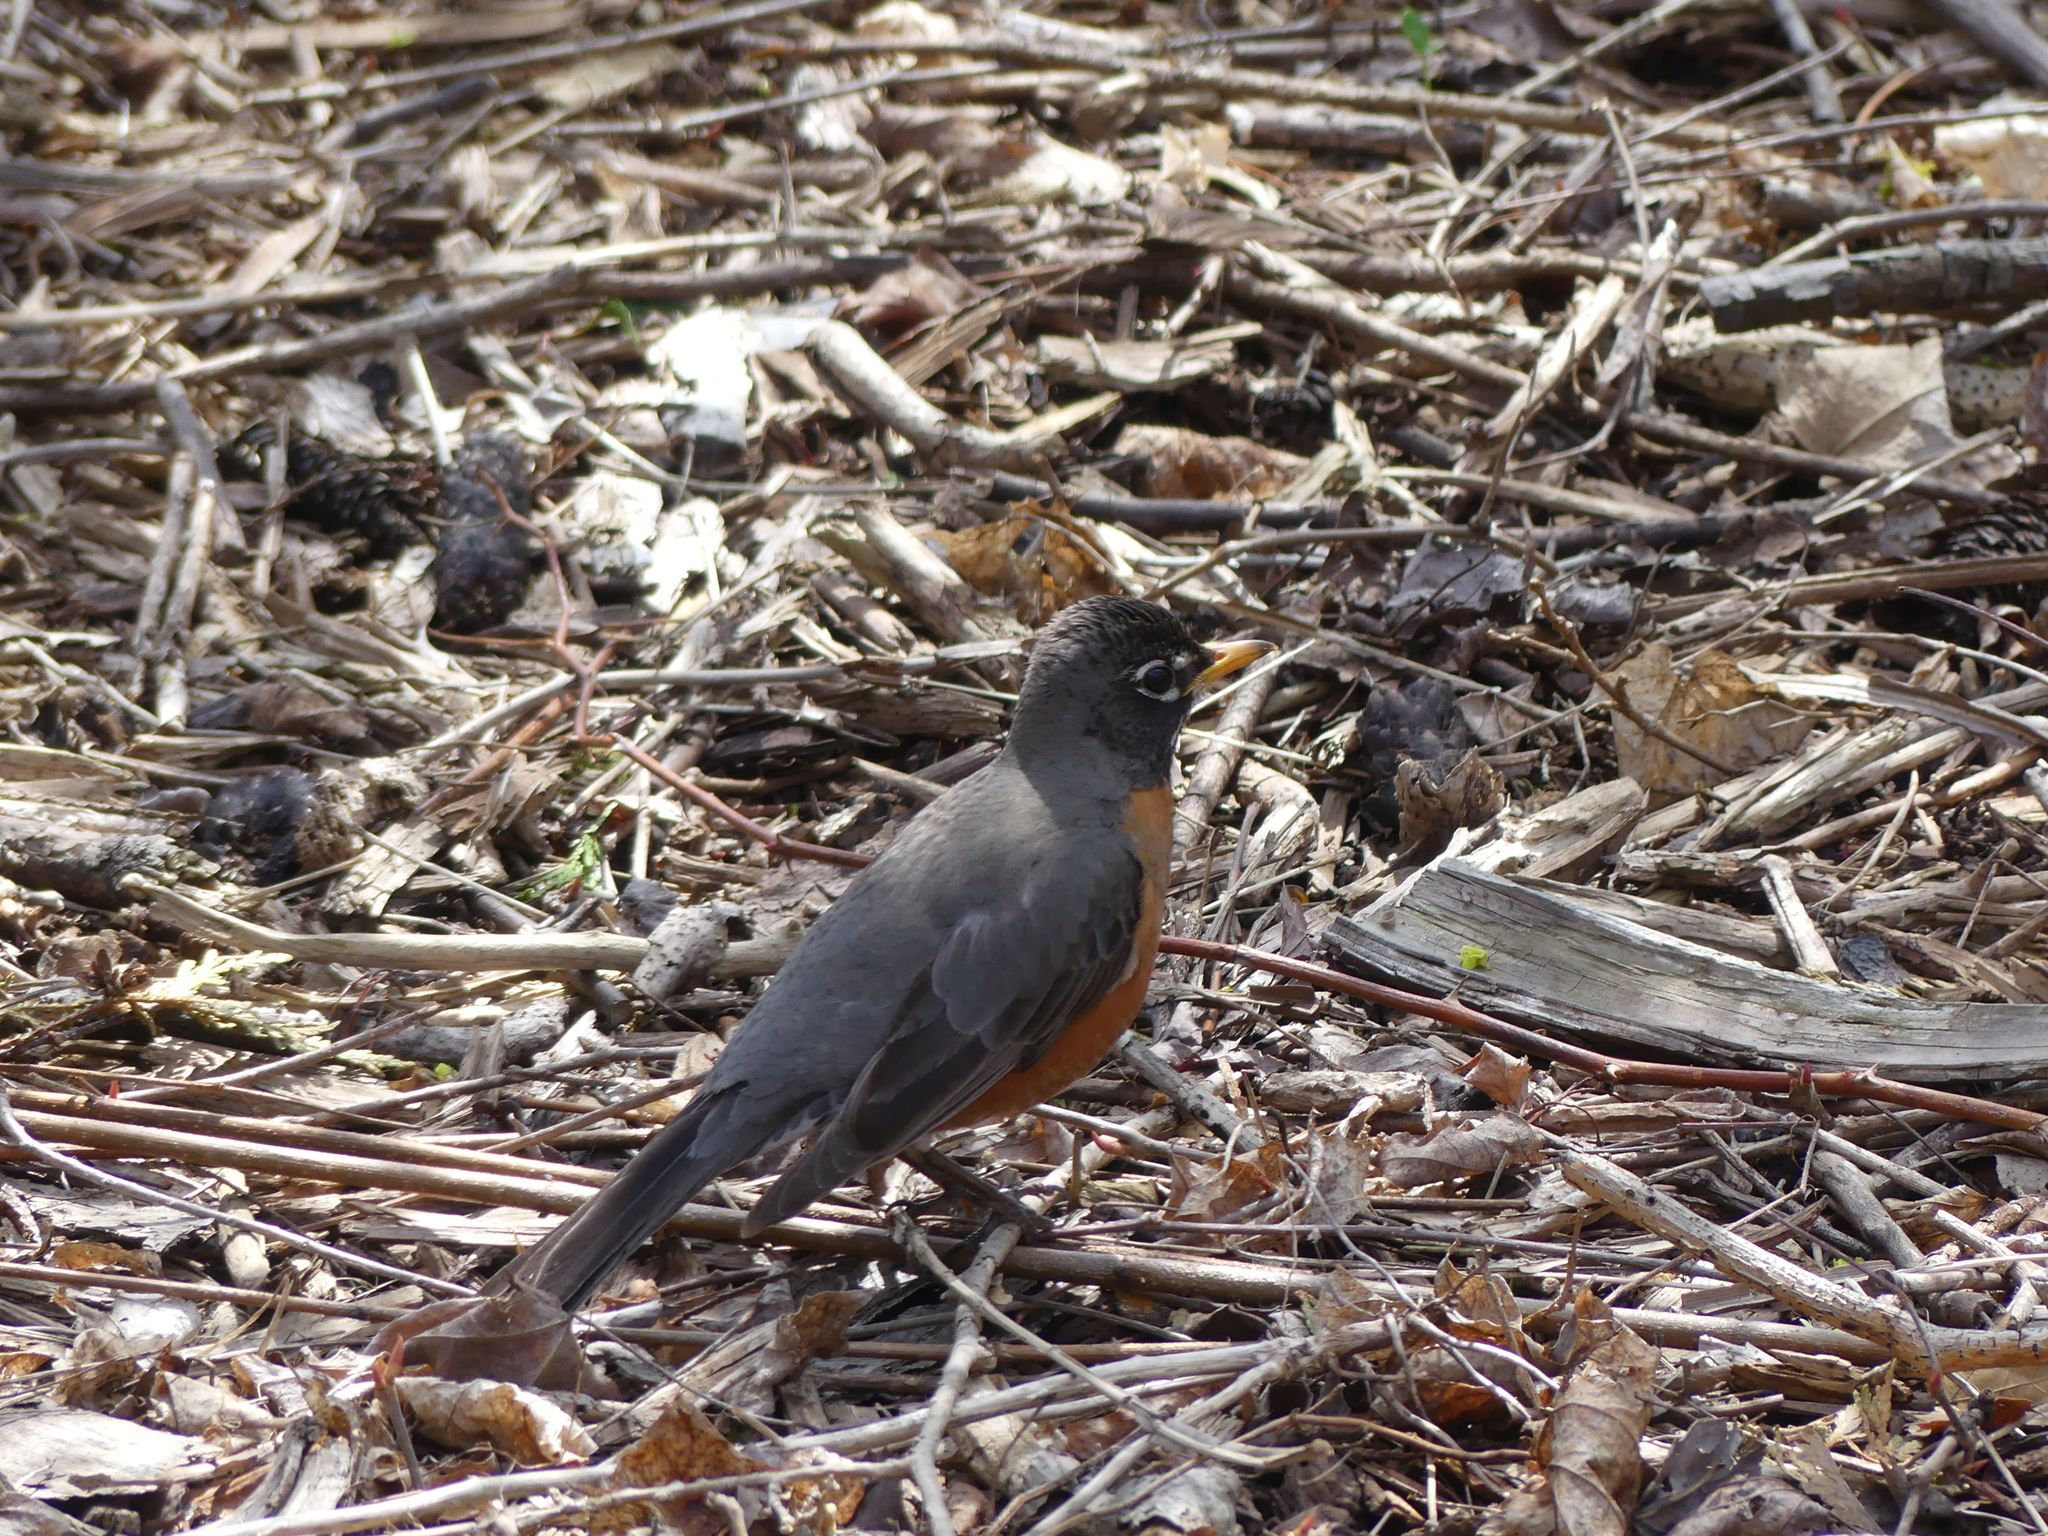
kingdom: Animalia
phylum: Chordata
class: Aves
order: Passeriformes
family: Turdidae
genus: Turdus
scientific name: Turdus migratorius
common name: American robin
